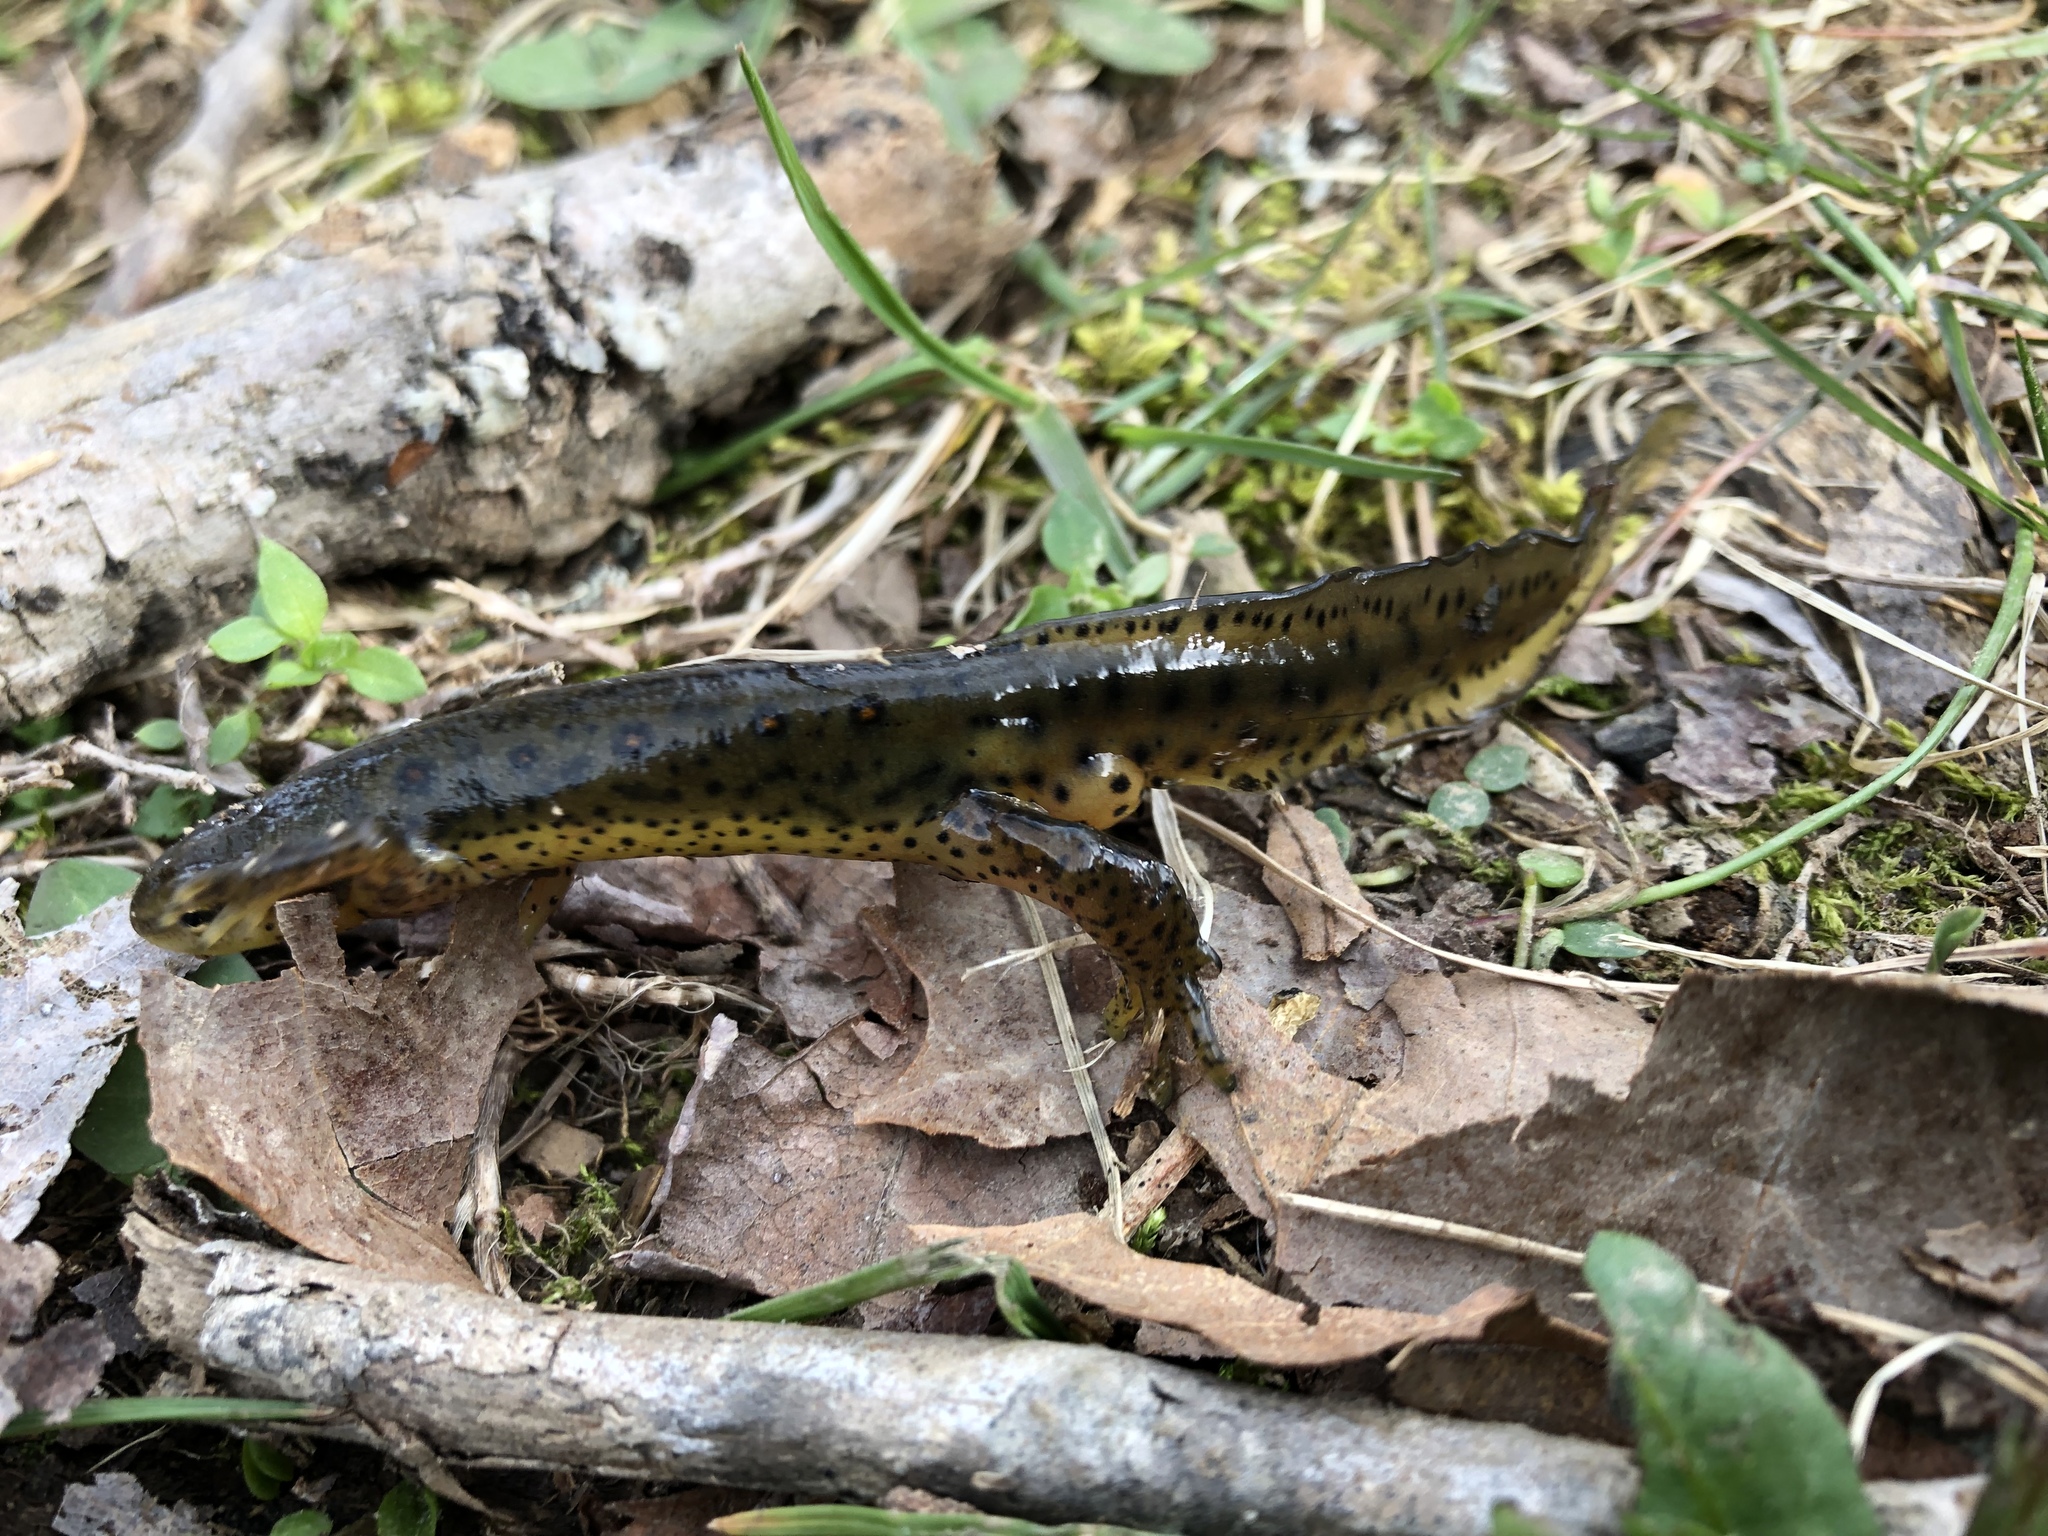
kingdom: Animalia
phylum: Chordata
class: Amphibia
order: Caudata
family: Salamandridae
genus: Notophthalmus
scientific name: Notophthalmus viridescens
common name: Eastern newt
